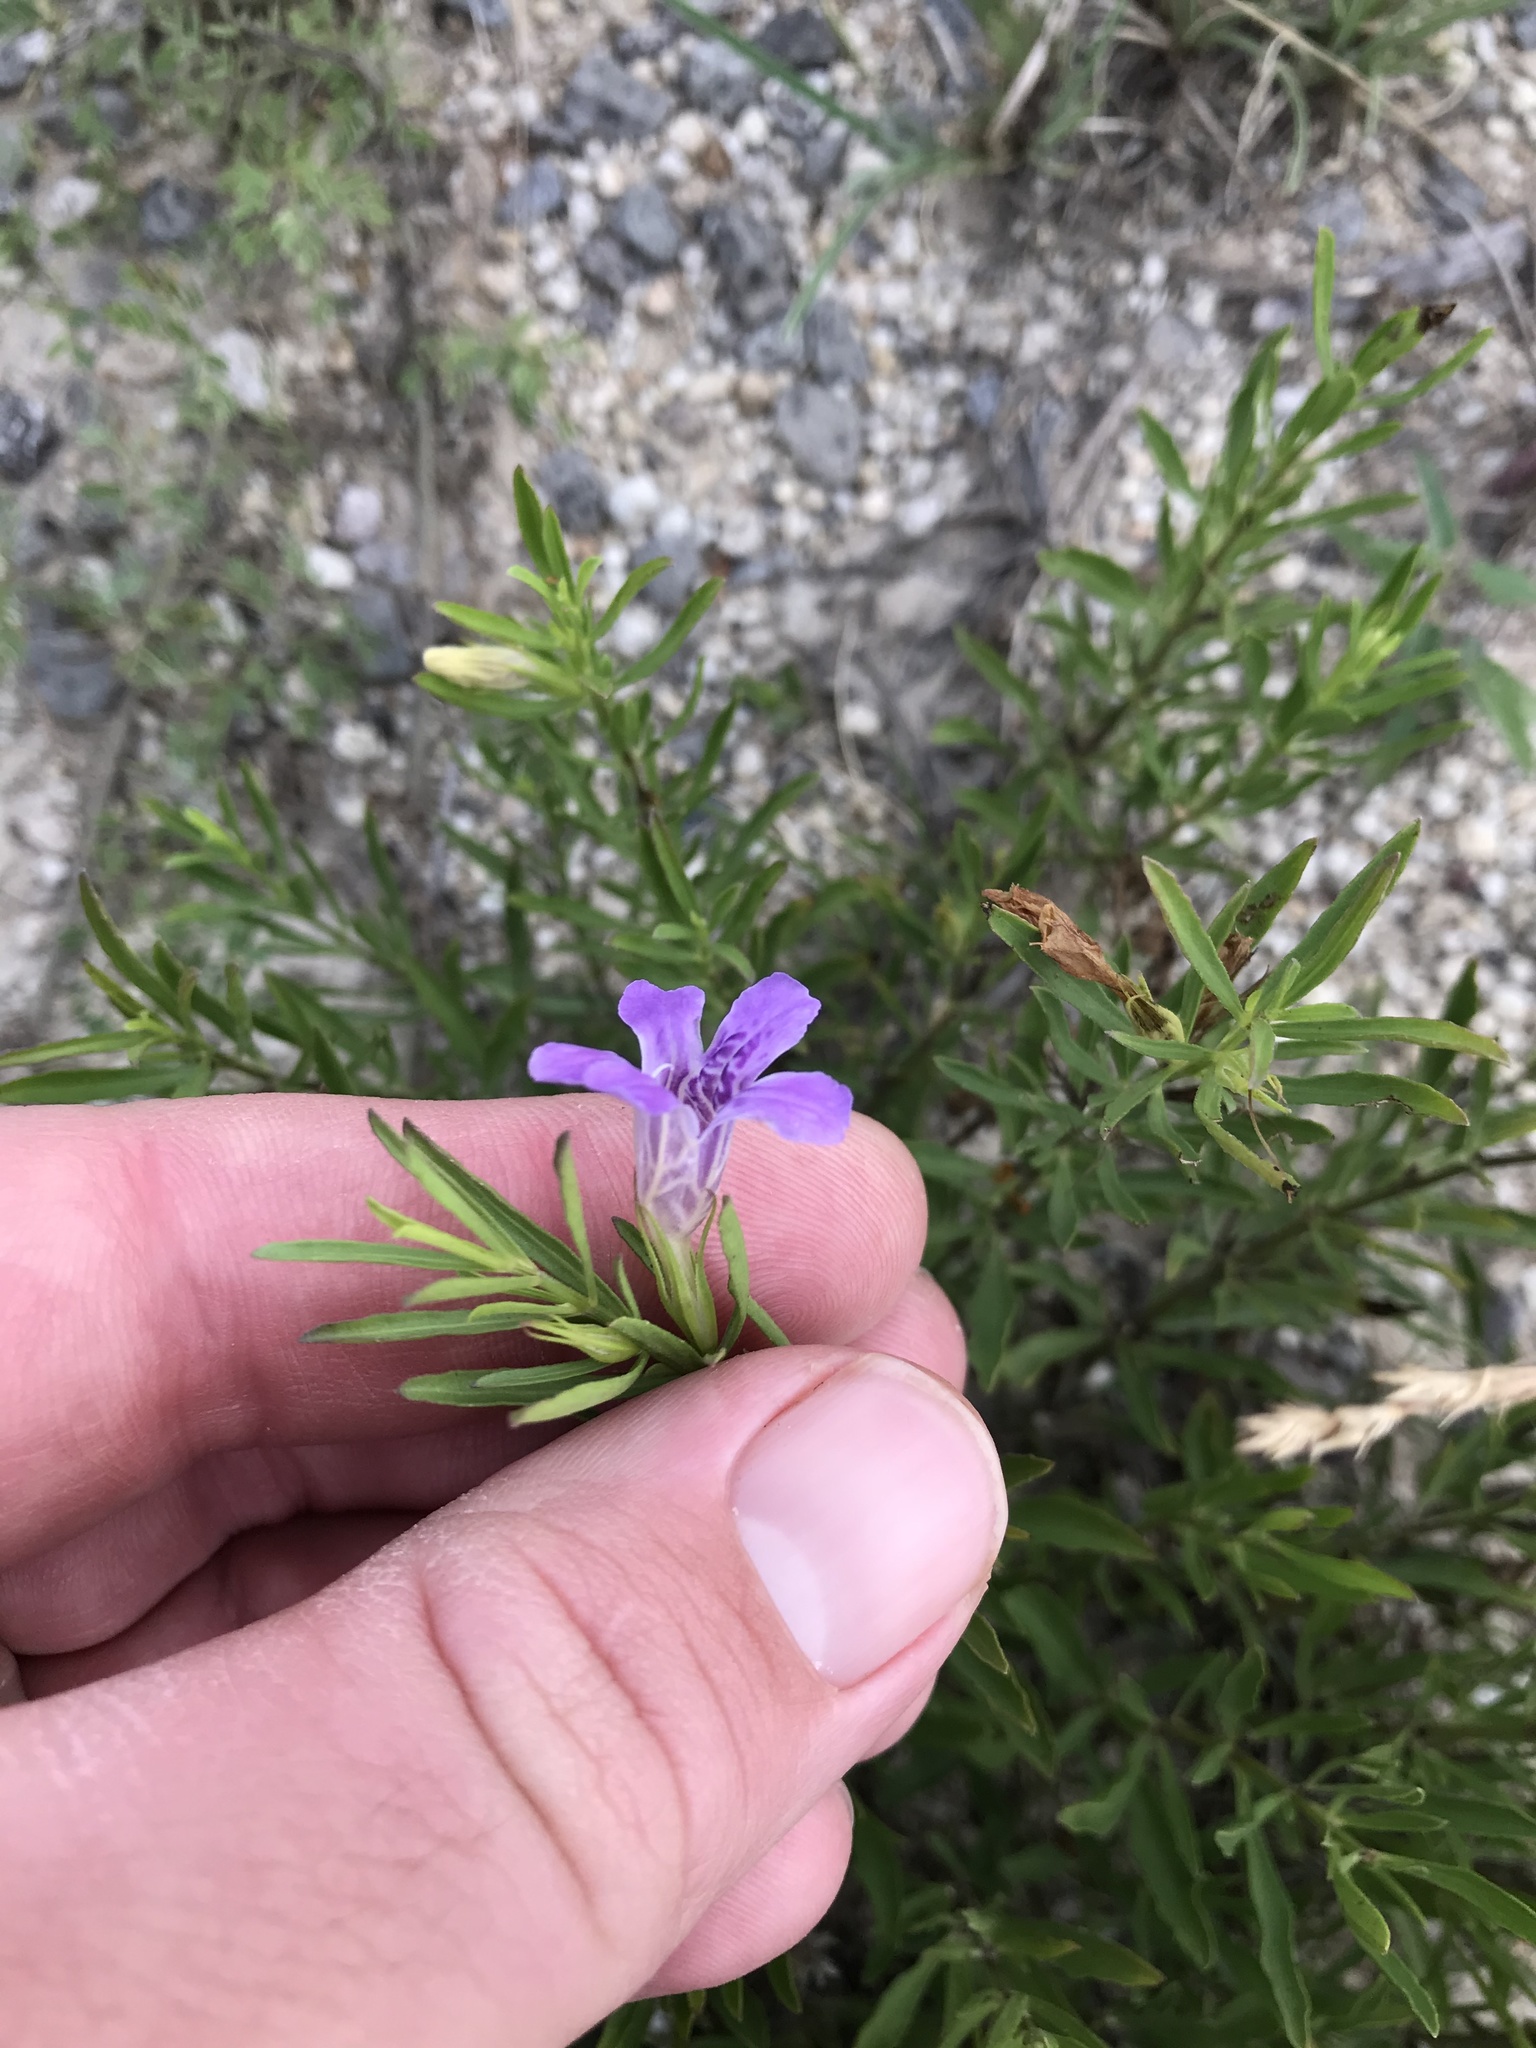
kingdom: Plantae
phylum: Tracheophyta
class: Magnoliopsida
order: Lamiales
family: Acanthaceae
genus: Dyschoriste
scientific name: Dyschoriste linearis
